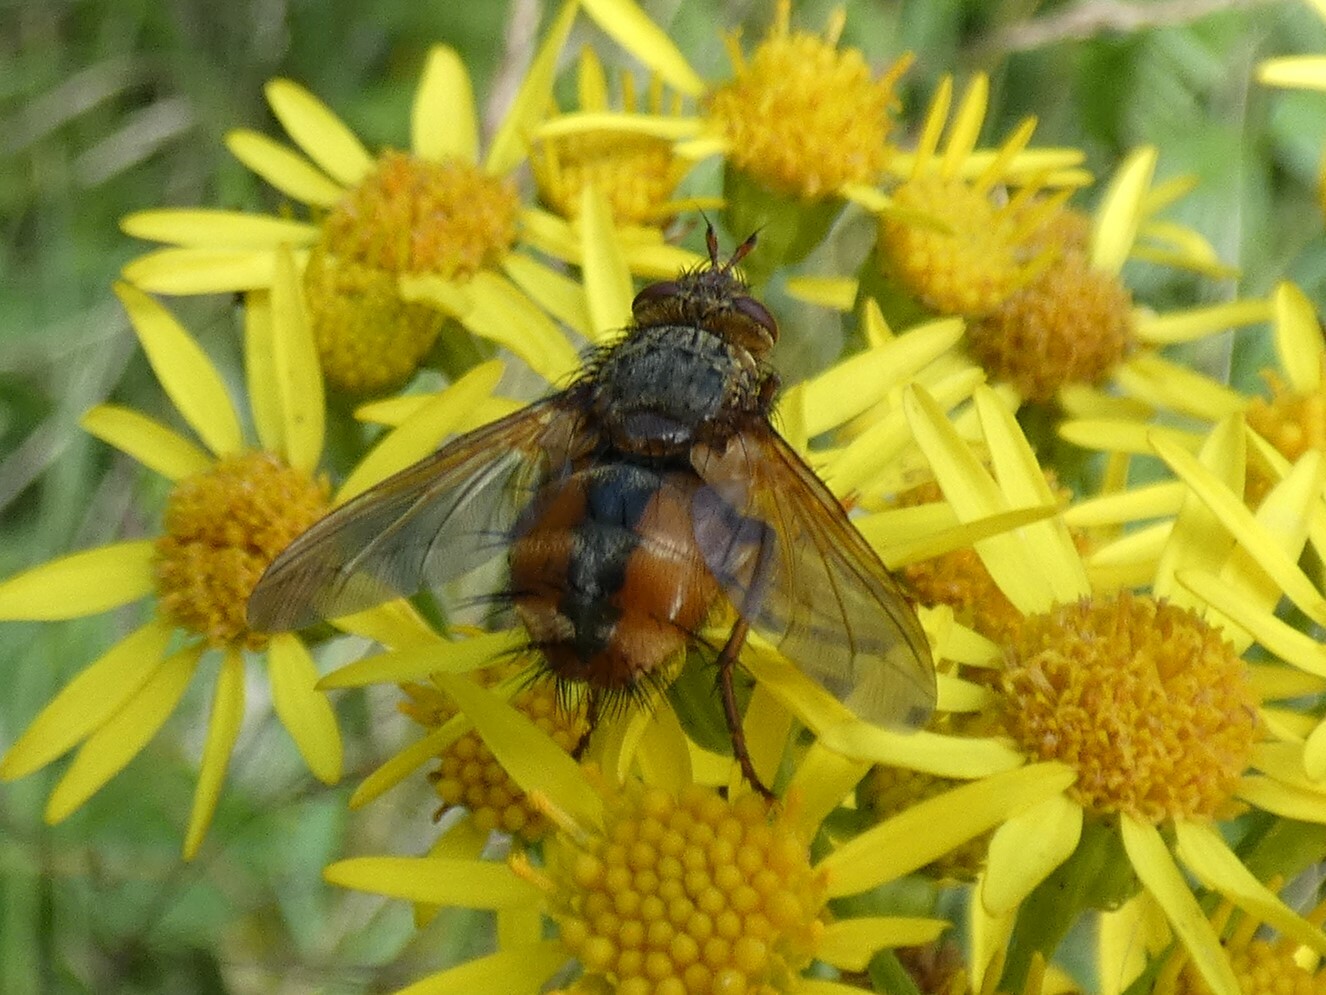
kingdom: Animalia
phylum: Arthropoda
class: Insecta
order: Diptera
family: Tachinidae
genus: Tachina
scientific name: Tachina fera
